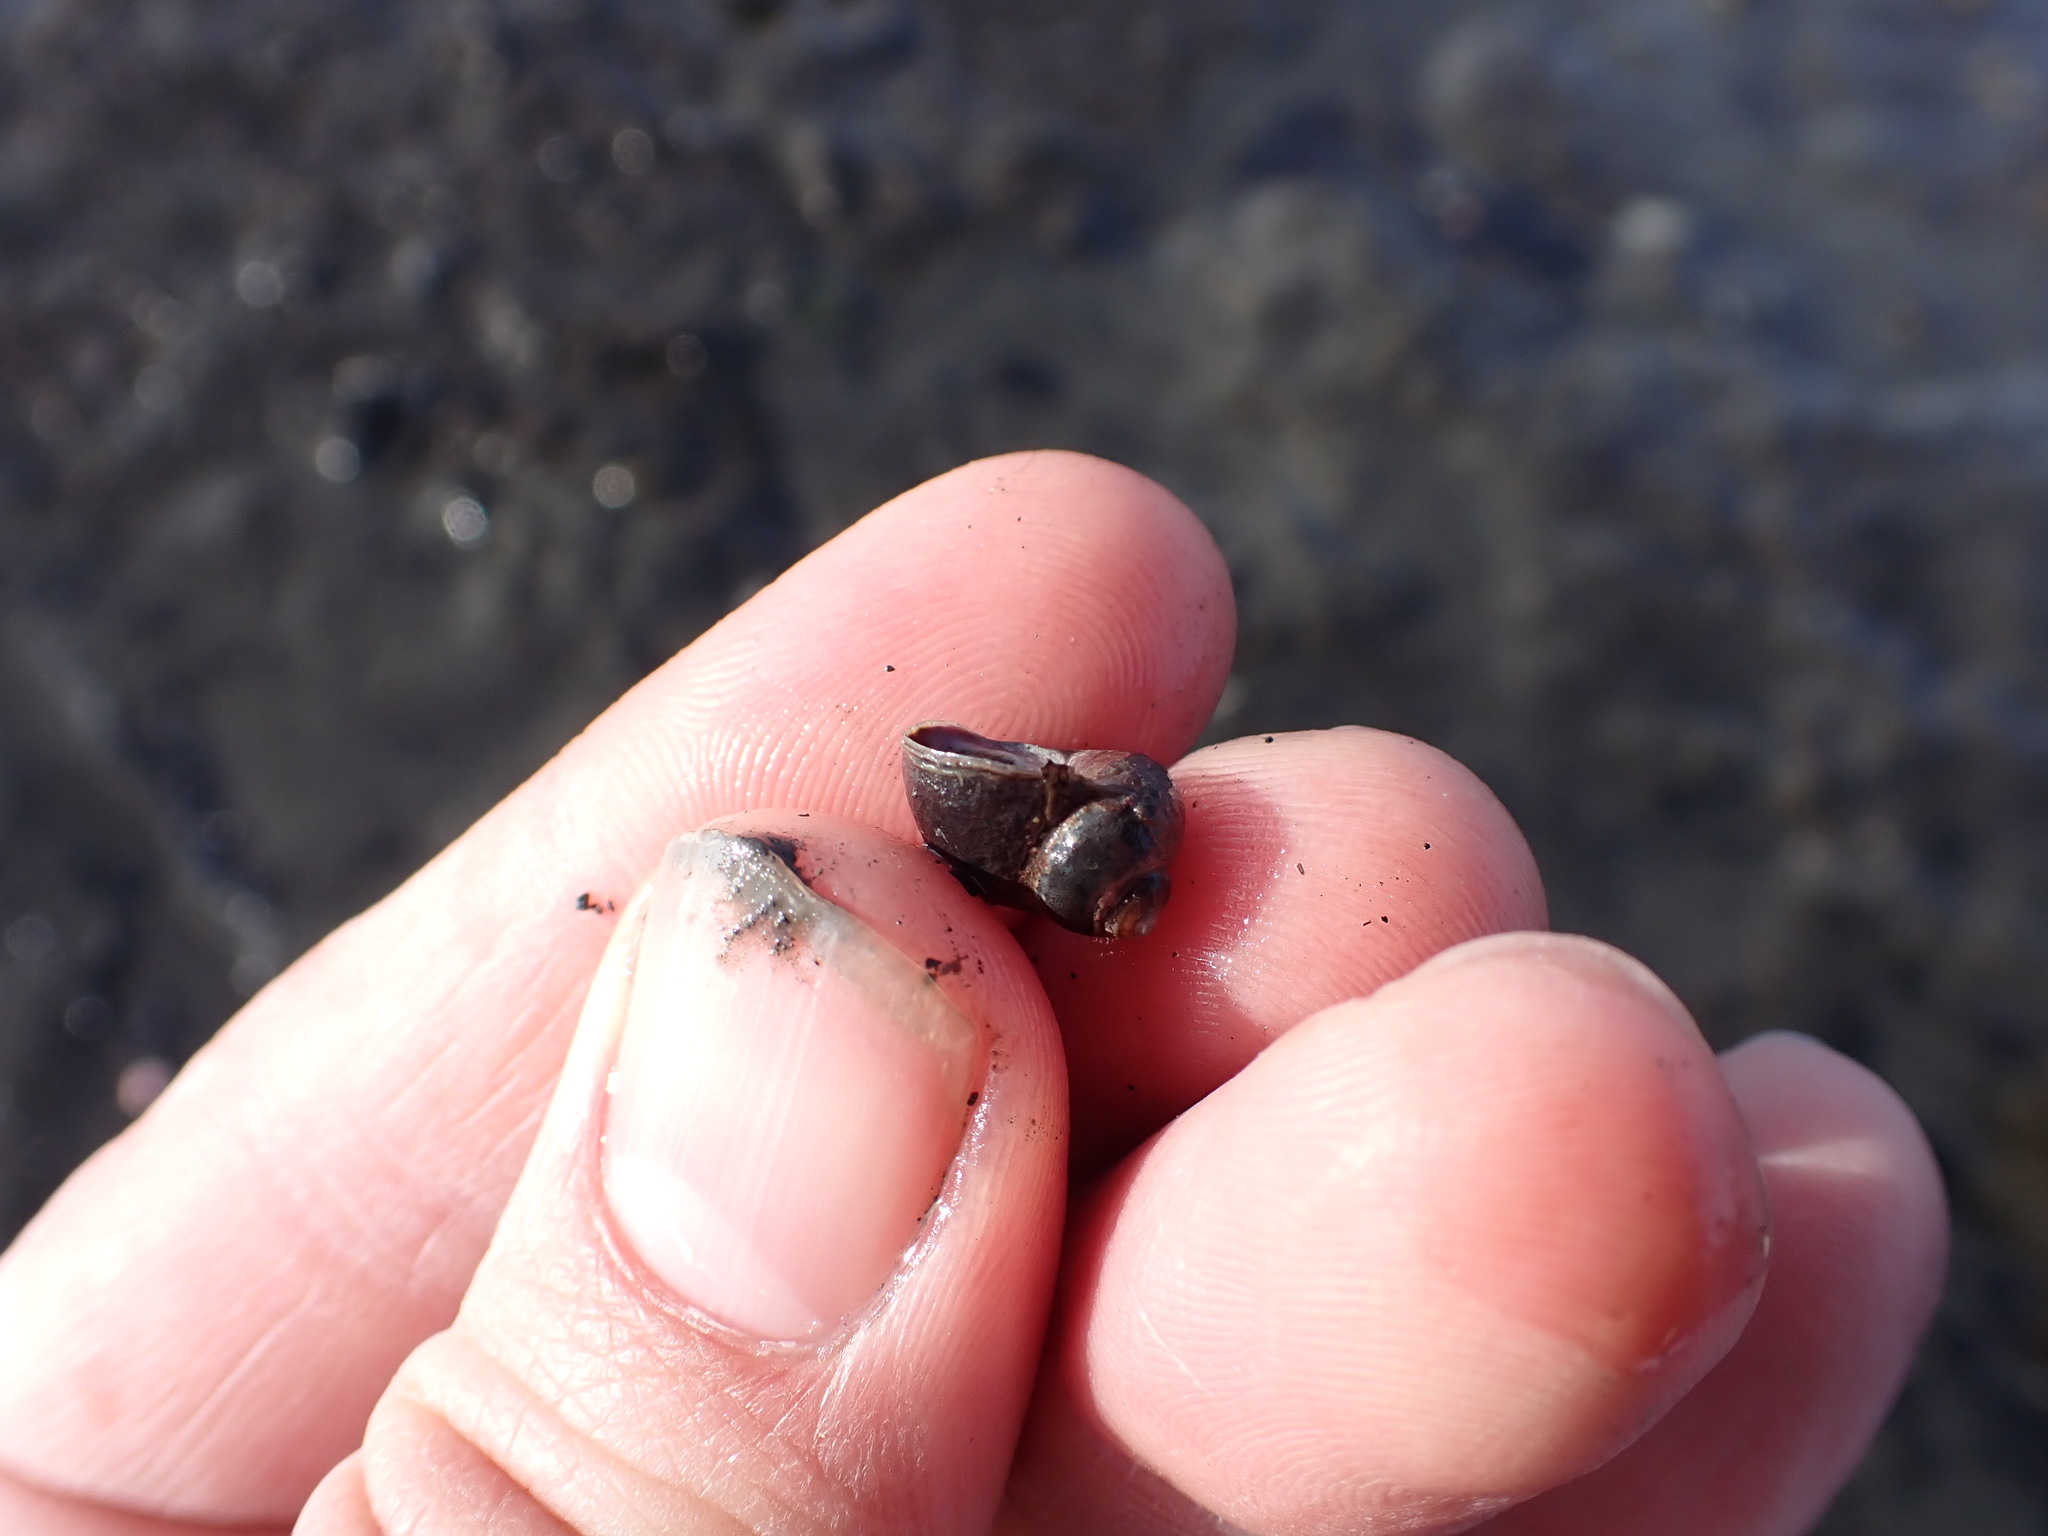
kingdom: Animalia
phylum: Mollusca
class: Gastropoda
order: Littorinimorpha
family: Littorinidae
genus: Littorina
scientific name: Littorina sitkana
